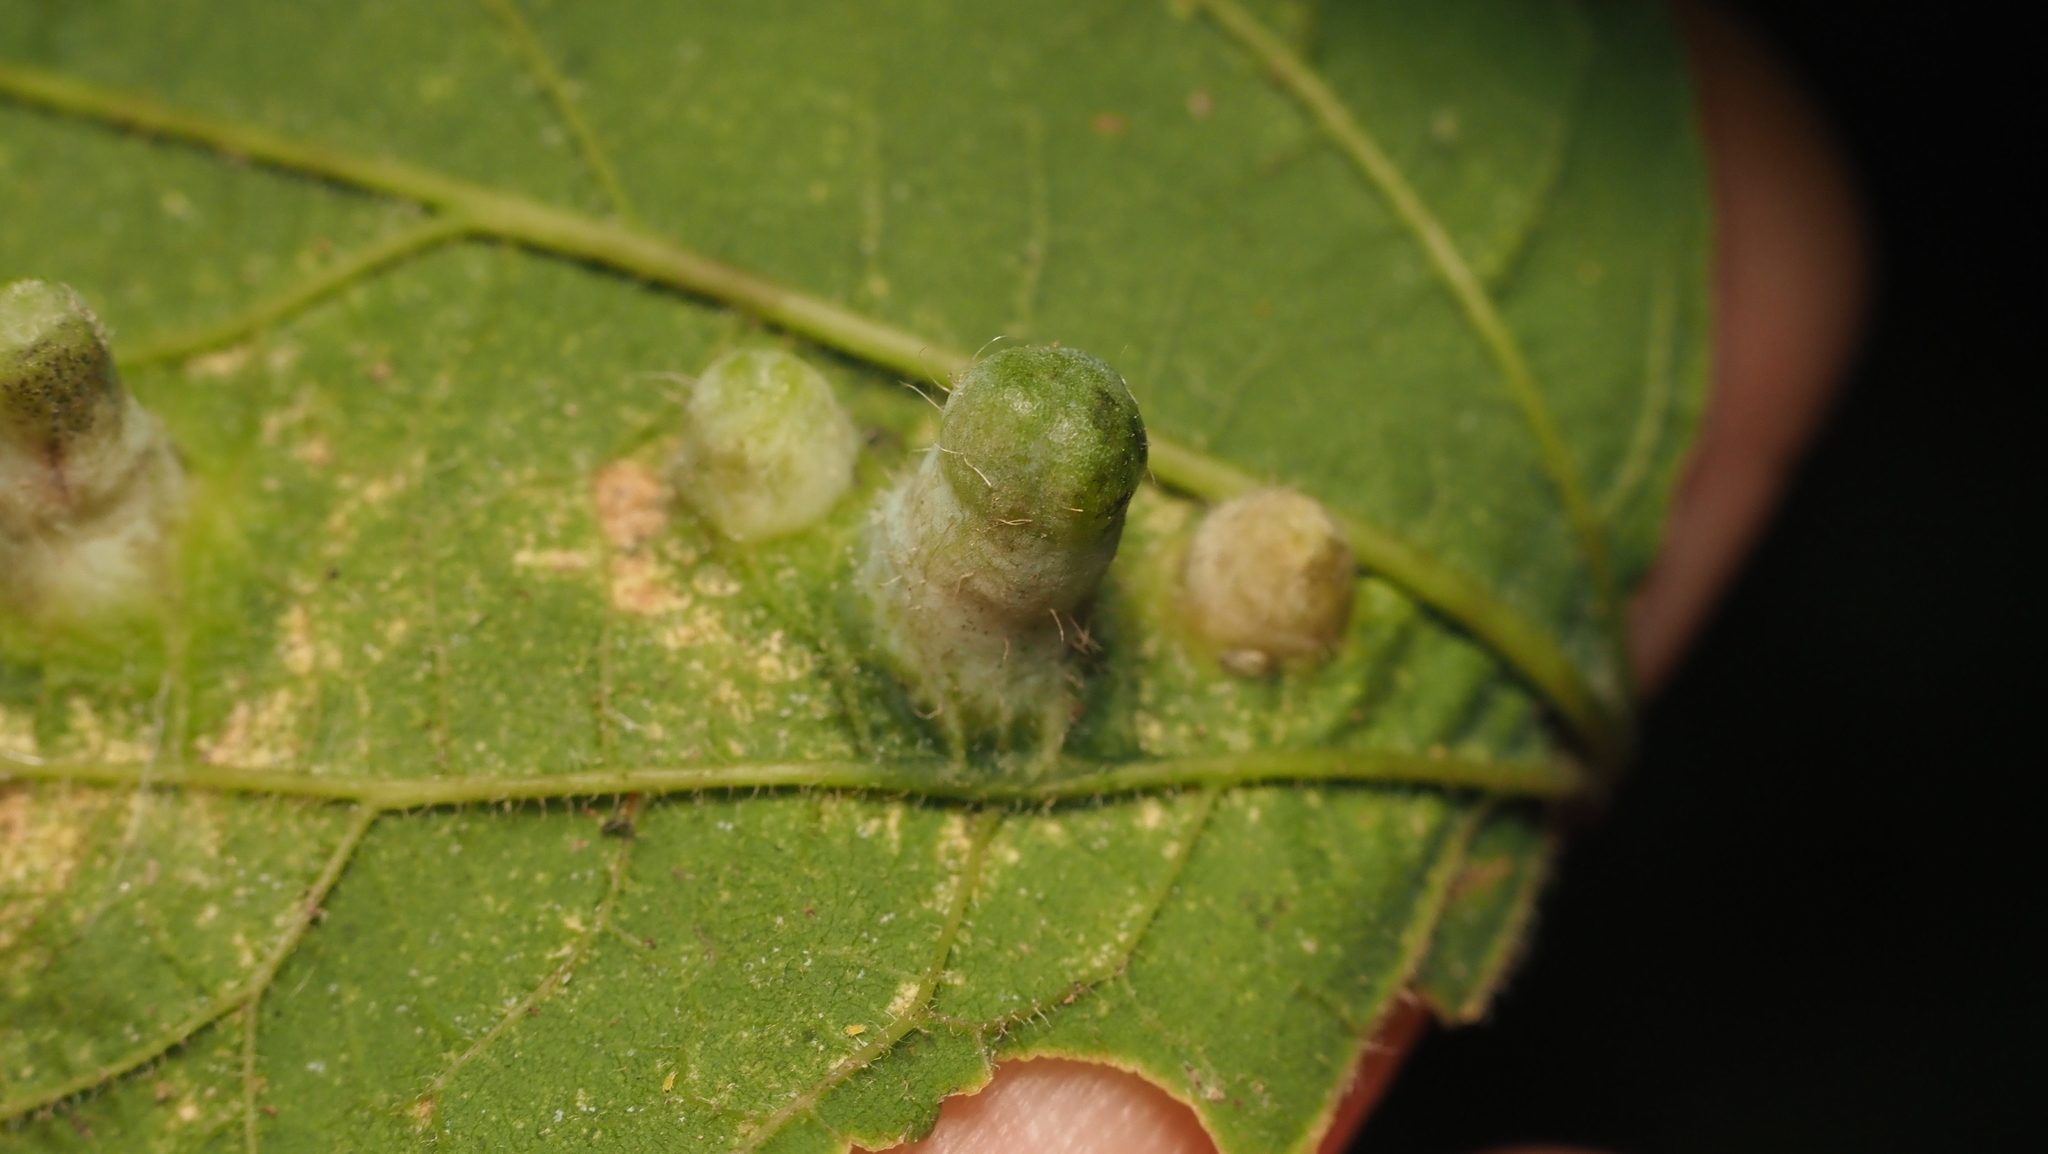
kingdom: Animalia
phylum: Arthropoda
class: Insecta
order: Hemiptera
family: Aphalaridae
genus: Pachypsylla
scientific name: Pachypsylla celtidismamma
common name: Hackberry nipplegall psyllid
